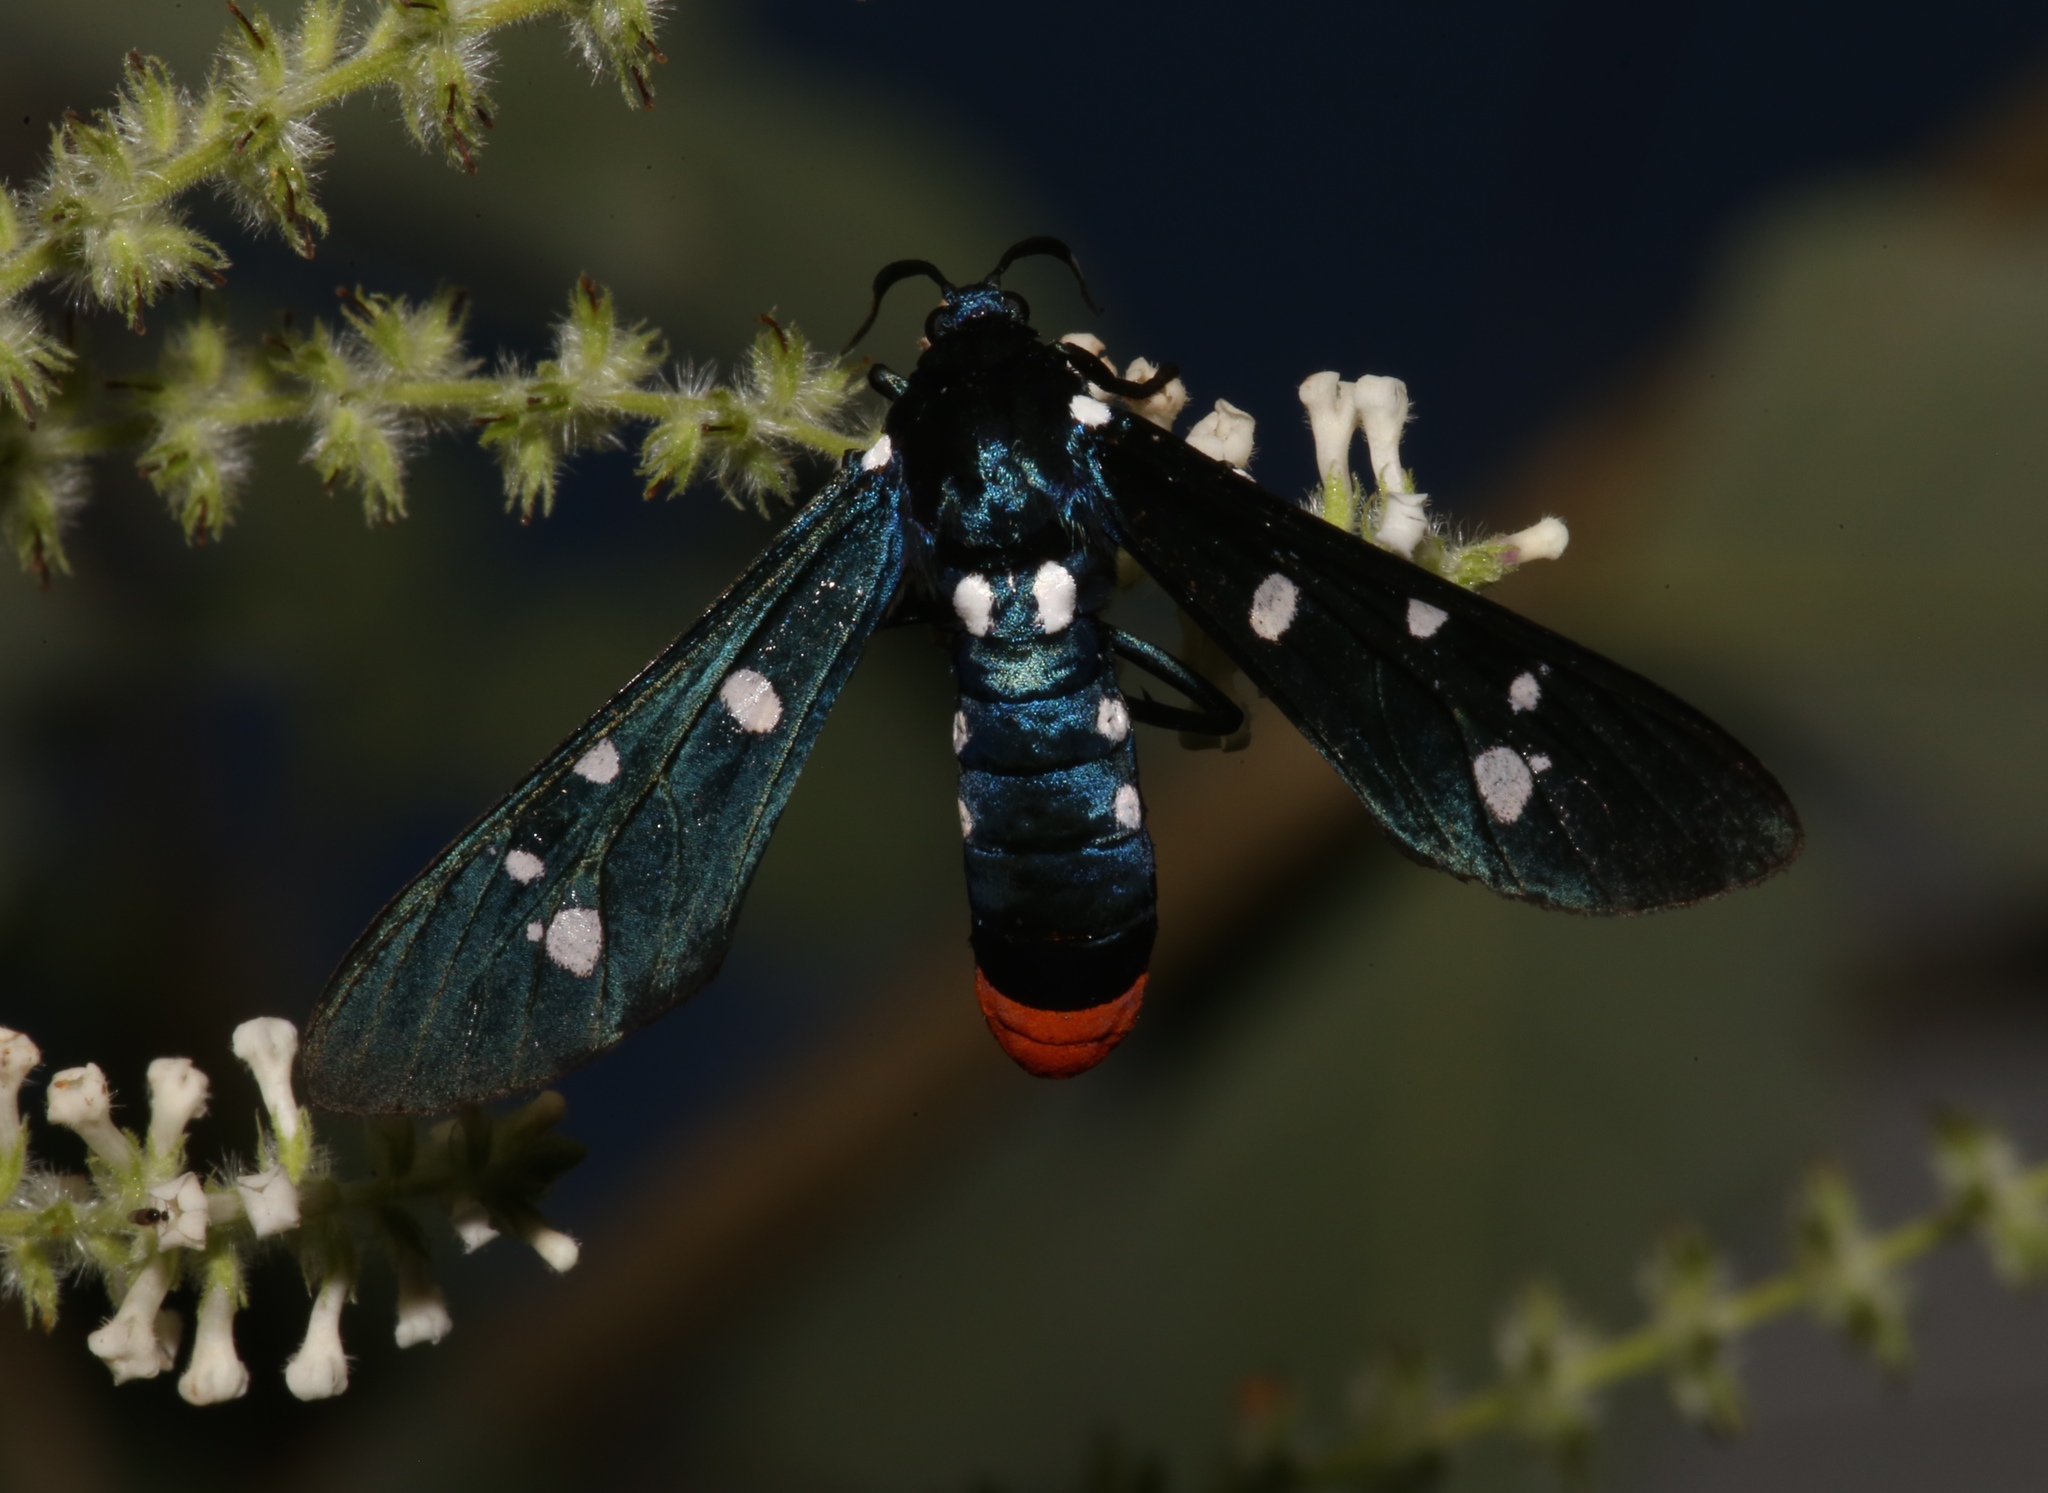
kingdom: Animalia
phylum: Arthropoda
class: Insecta
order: Lepidoptera
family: Erebidae
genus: Syntomeida
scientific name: Syntomeida epilais
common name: Polka-dot wasp moth
